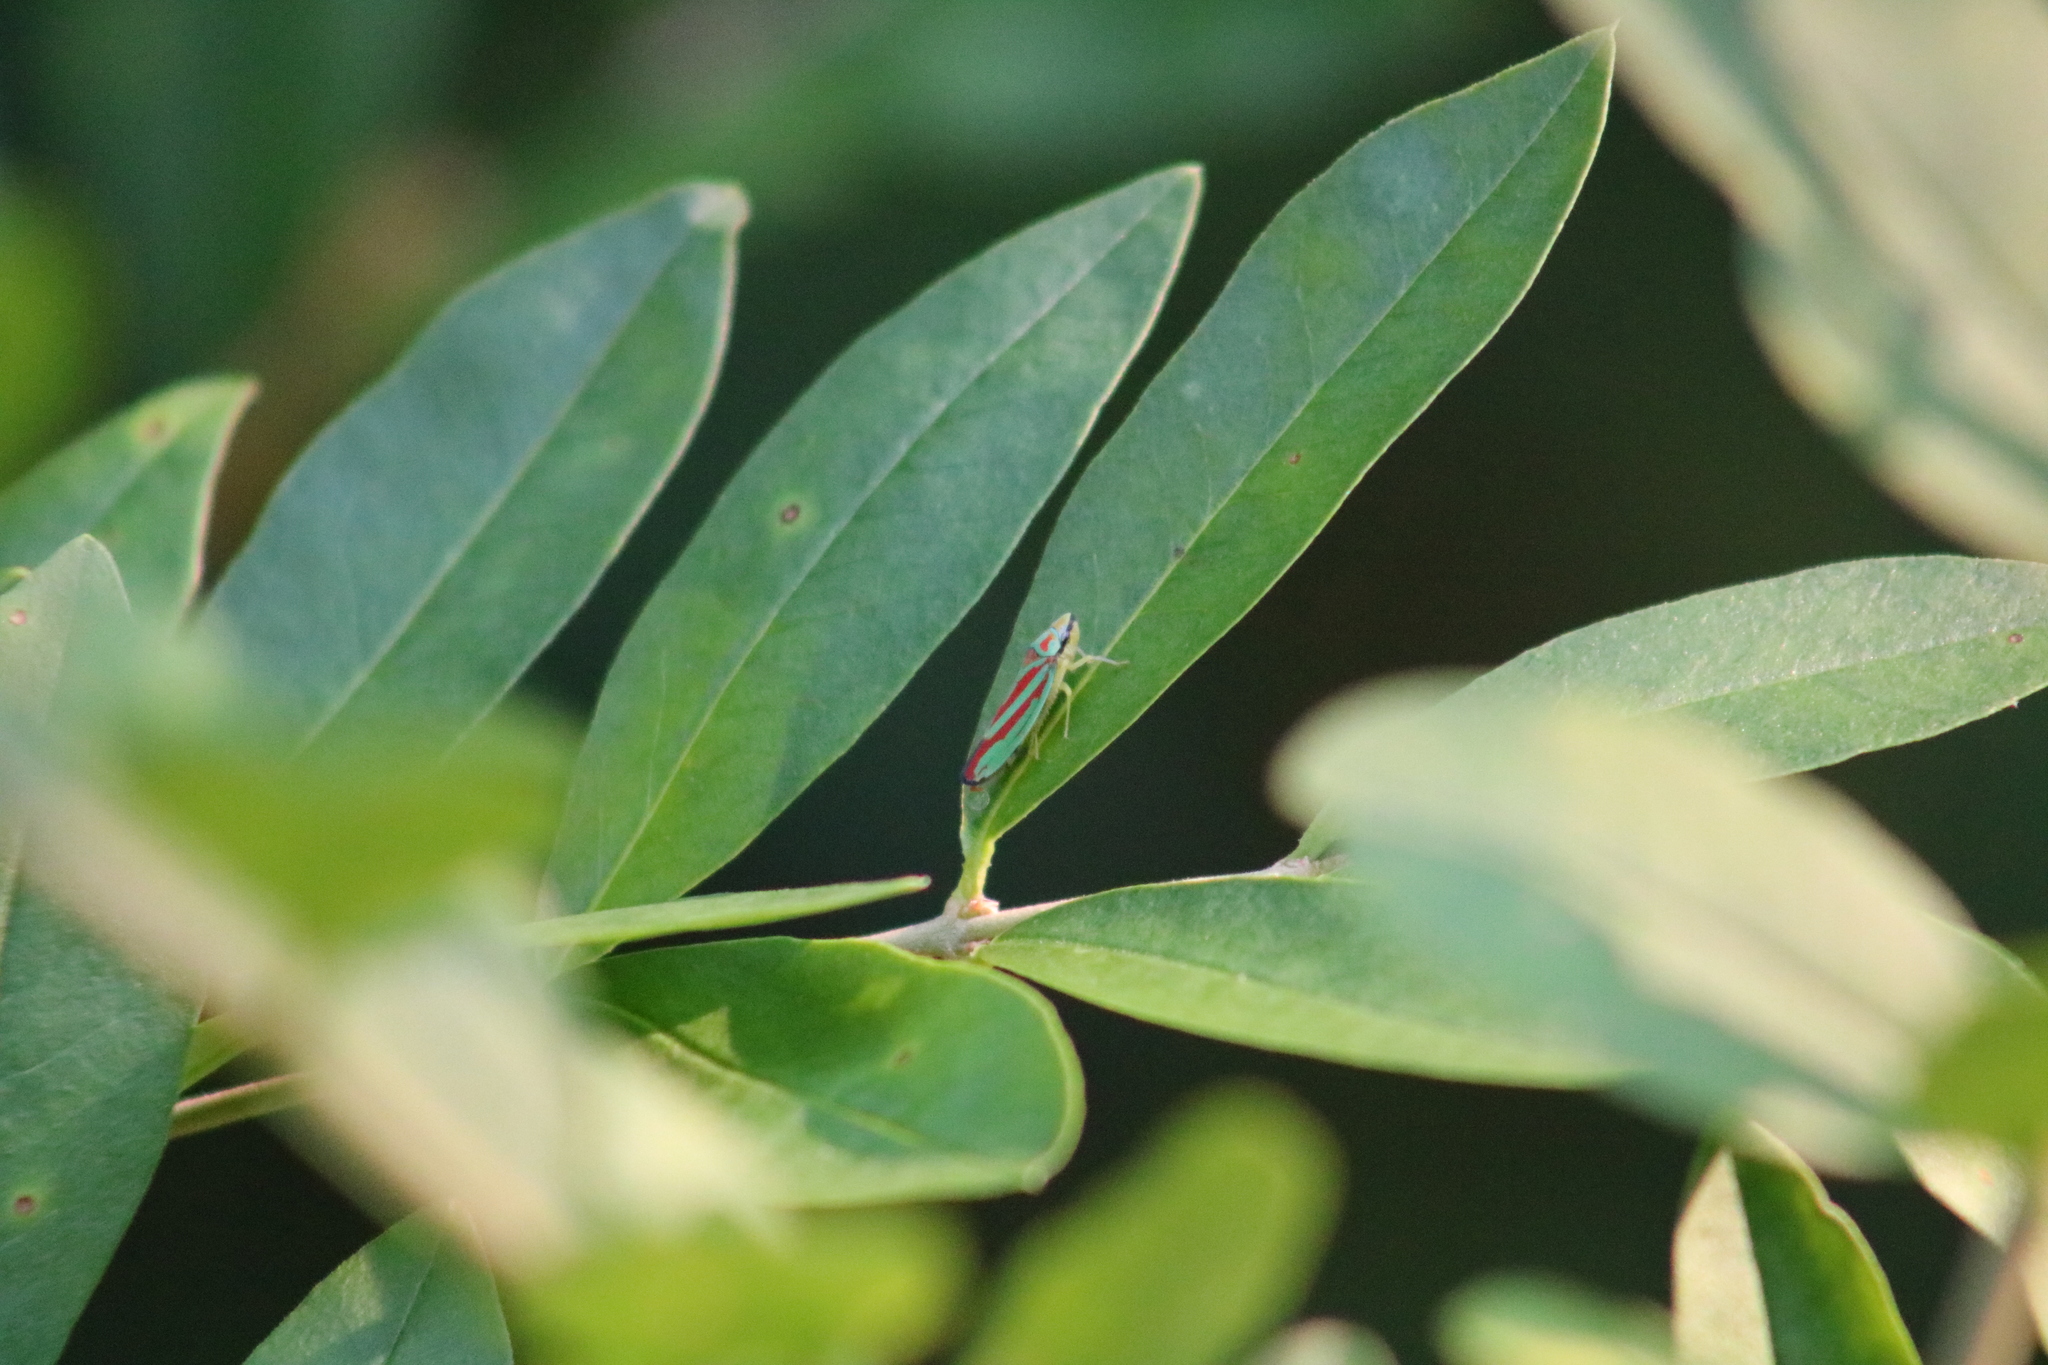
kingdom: Animalia
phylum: Arthropoda
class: Insecta
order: Hemiptera
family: Cicadellidae
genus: Graphocephala
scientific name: Graphocephala fennahi
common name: Rhododendron leafhopper
